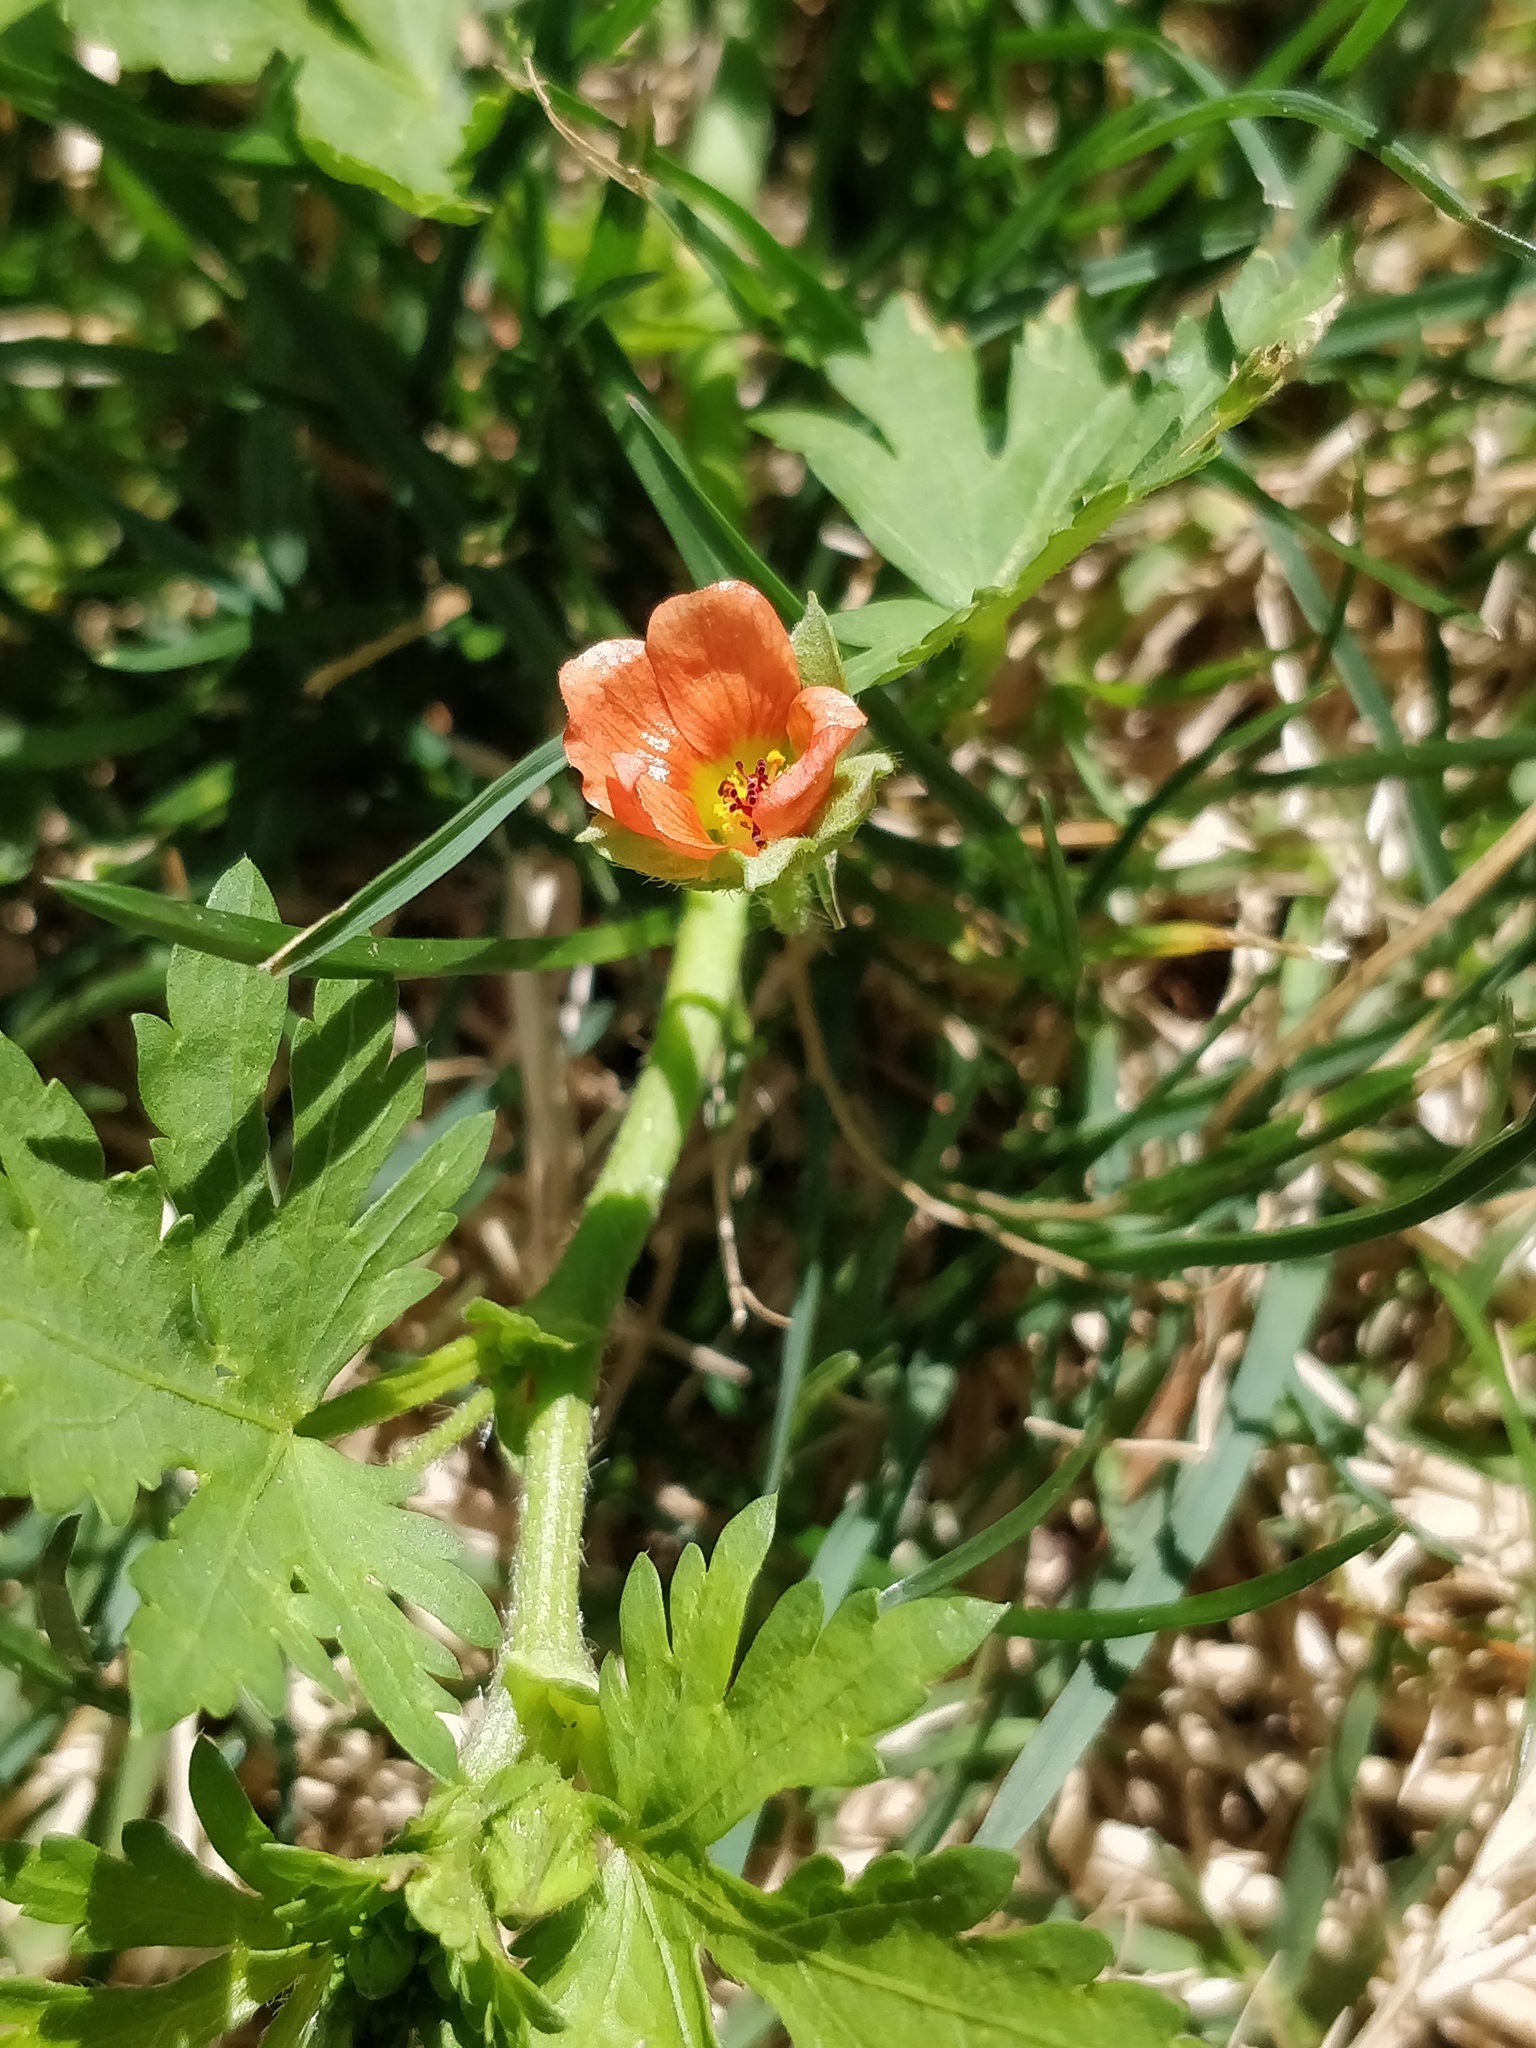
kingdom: Plantae
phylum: Tracheophyta
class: Magnoliopsida
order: Malvales
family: Malvaceae
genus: Modiola
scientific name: Modiola caroliniana
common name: Carolina bristlemallow
